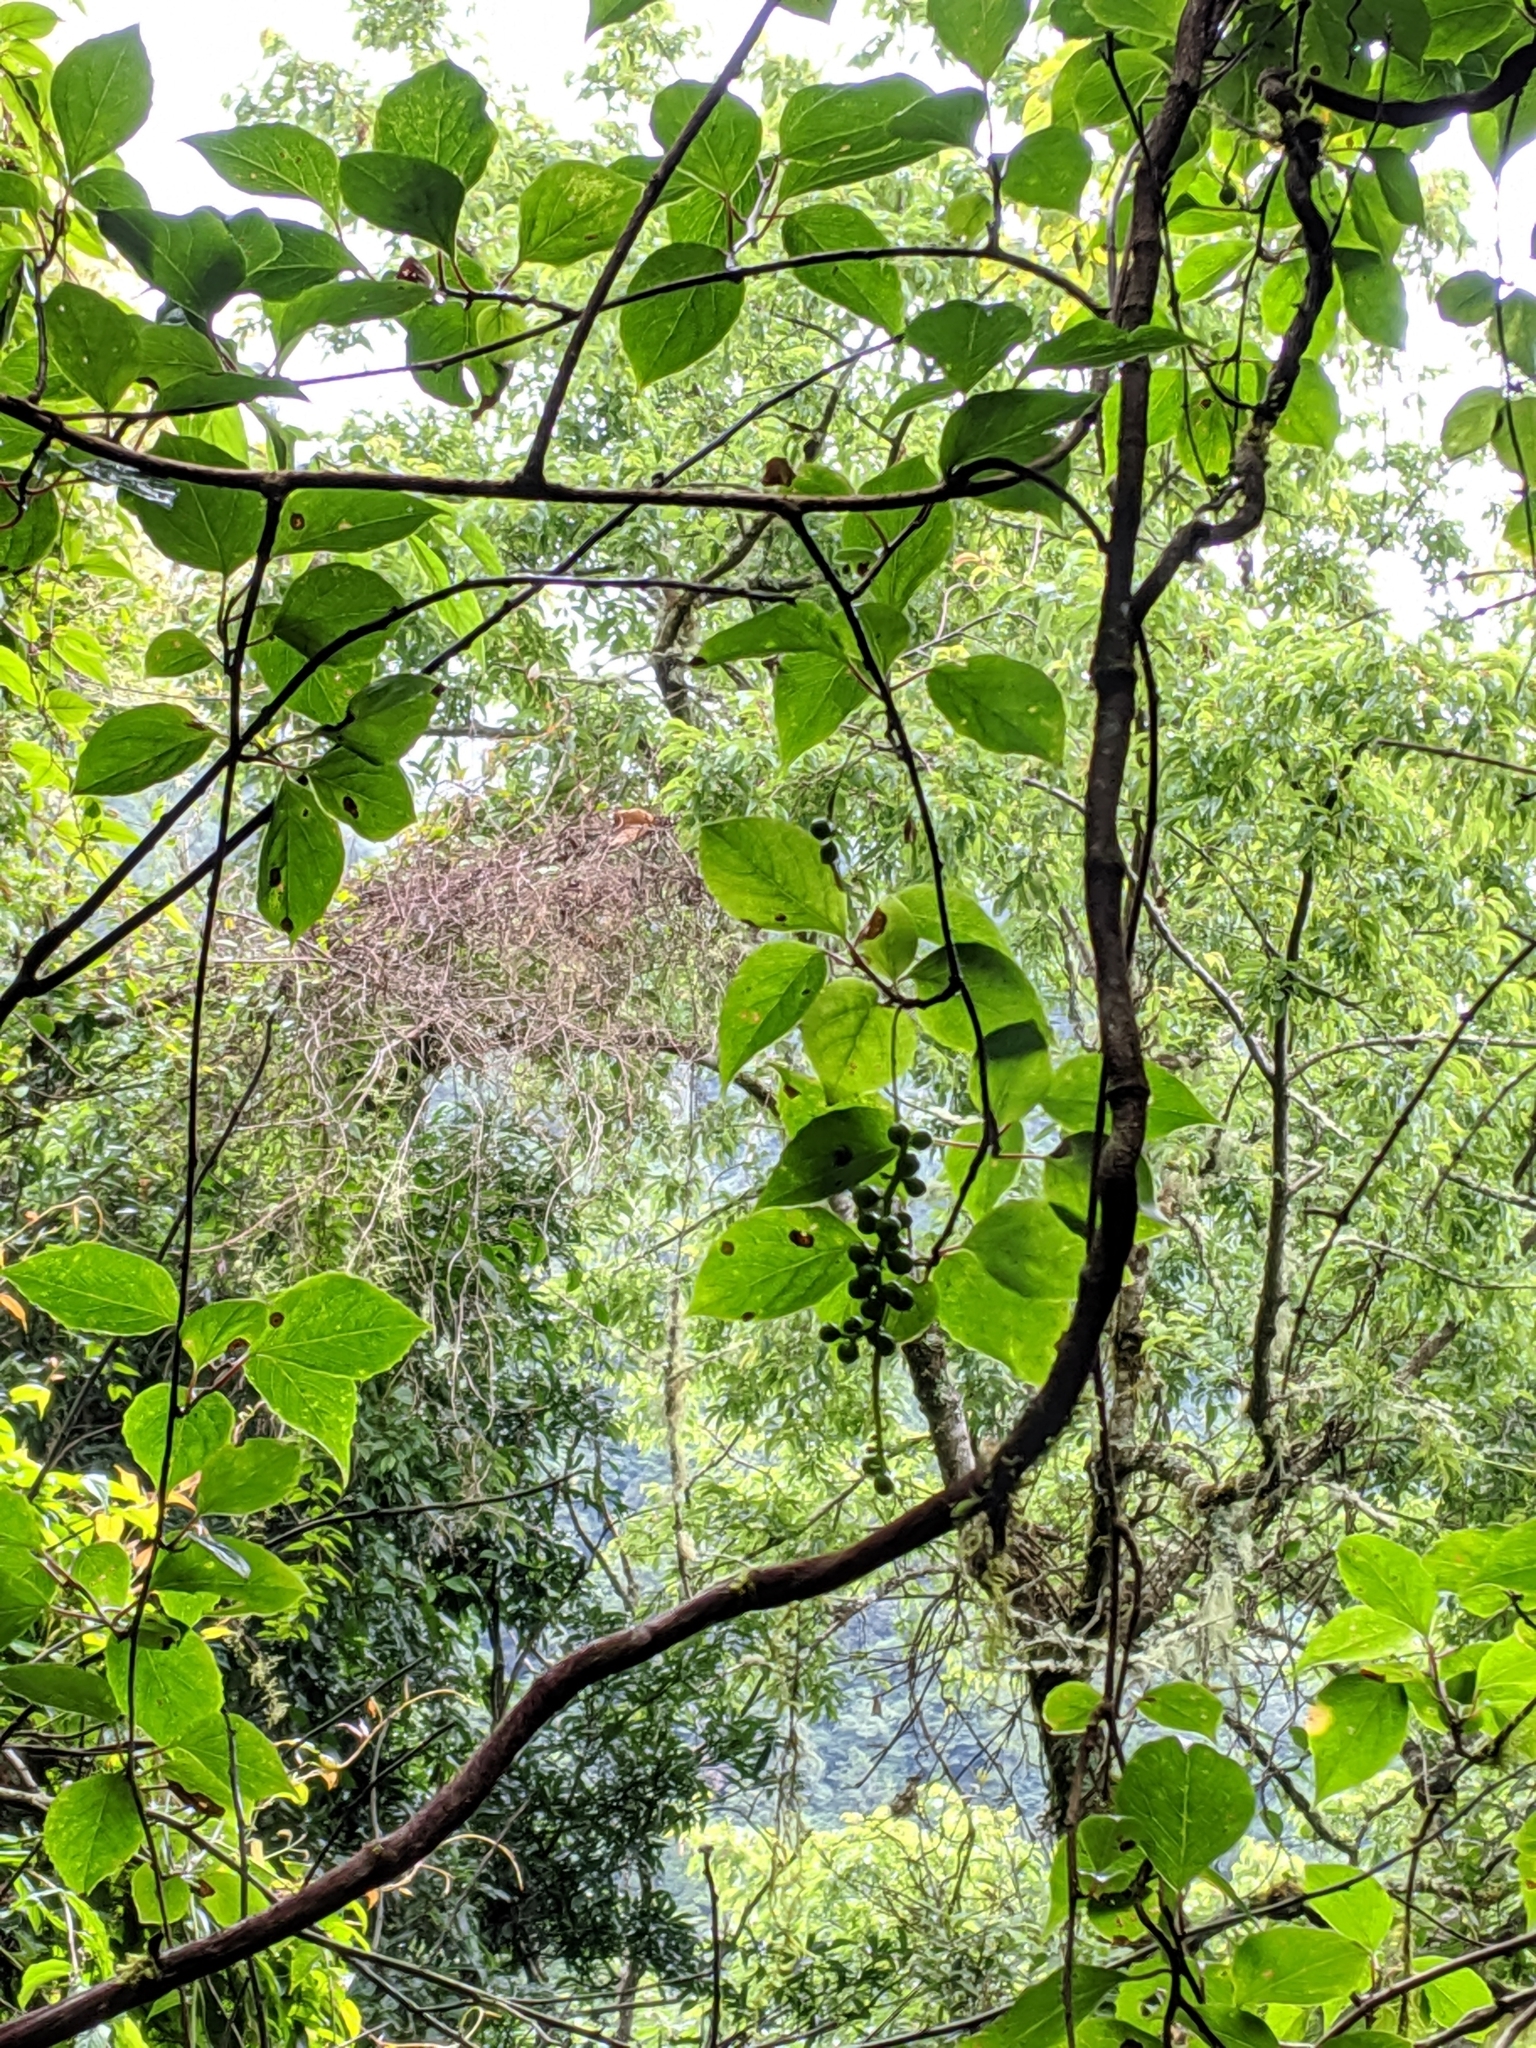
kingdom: Plantae
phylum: Tracheophyta
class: Magnoliopsida
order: Austrobaileyales
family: Schisandraceae
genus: Schisandra
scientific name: Schisandra arisanensis
